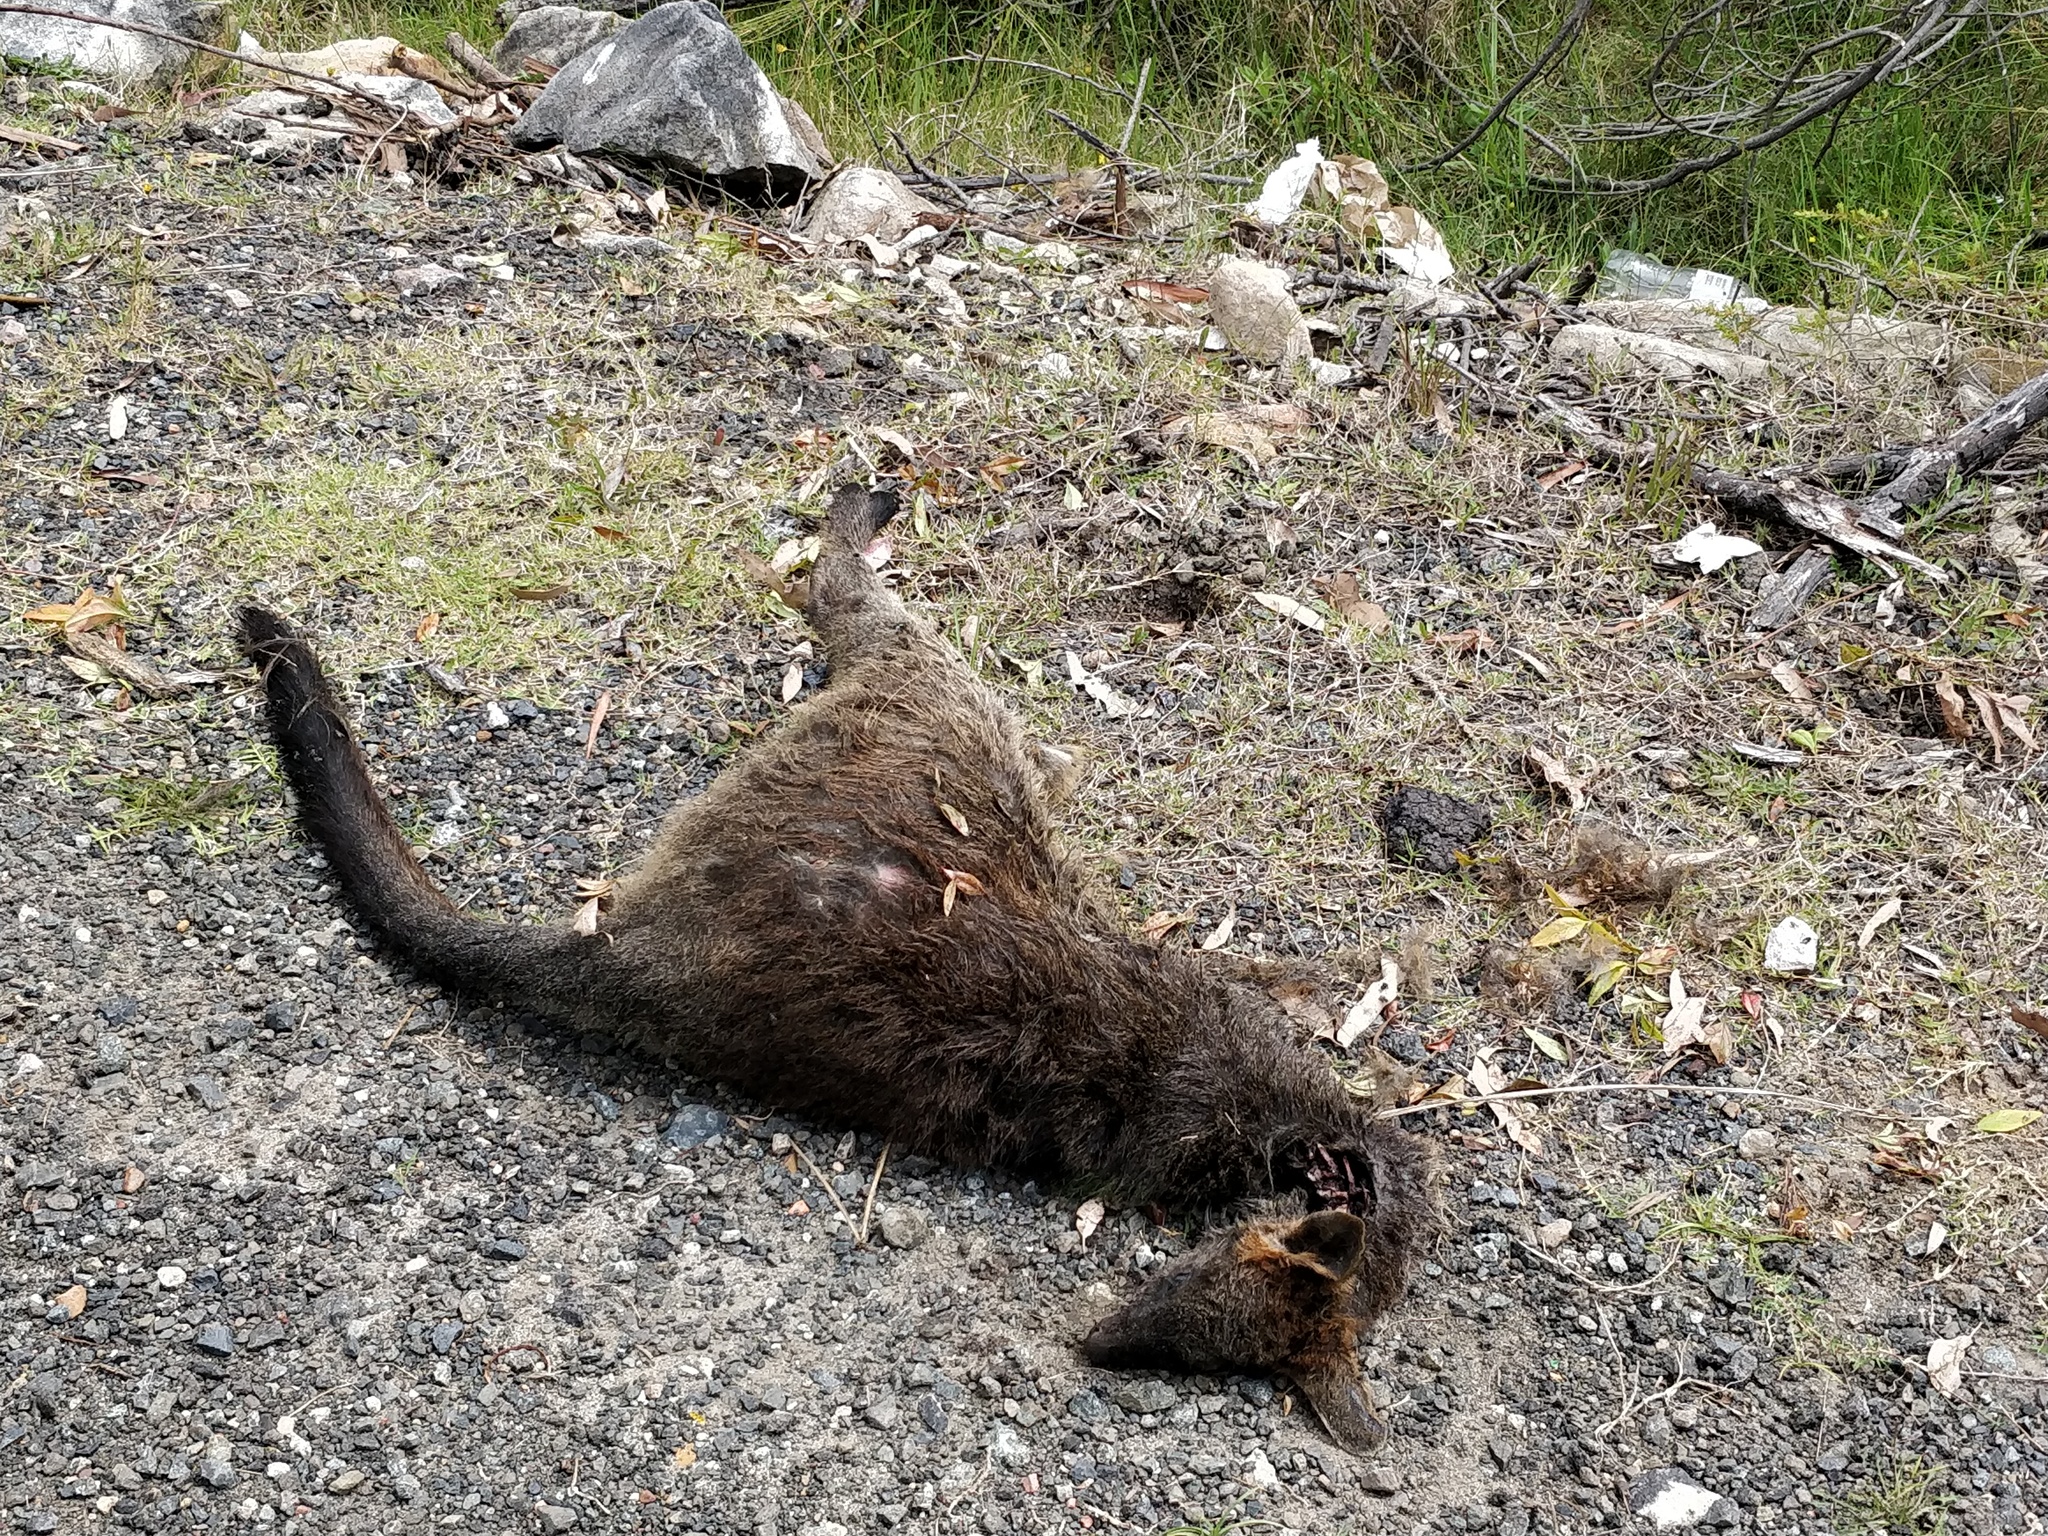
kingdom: Animalia
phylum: Chordata
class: Mammalia
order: Diprotodontia
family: Macropodidae
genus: Wallabia
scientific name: Wallabia bicolor
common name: Swamp wallaby
